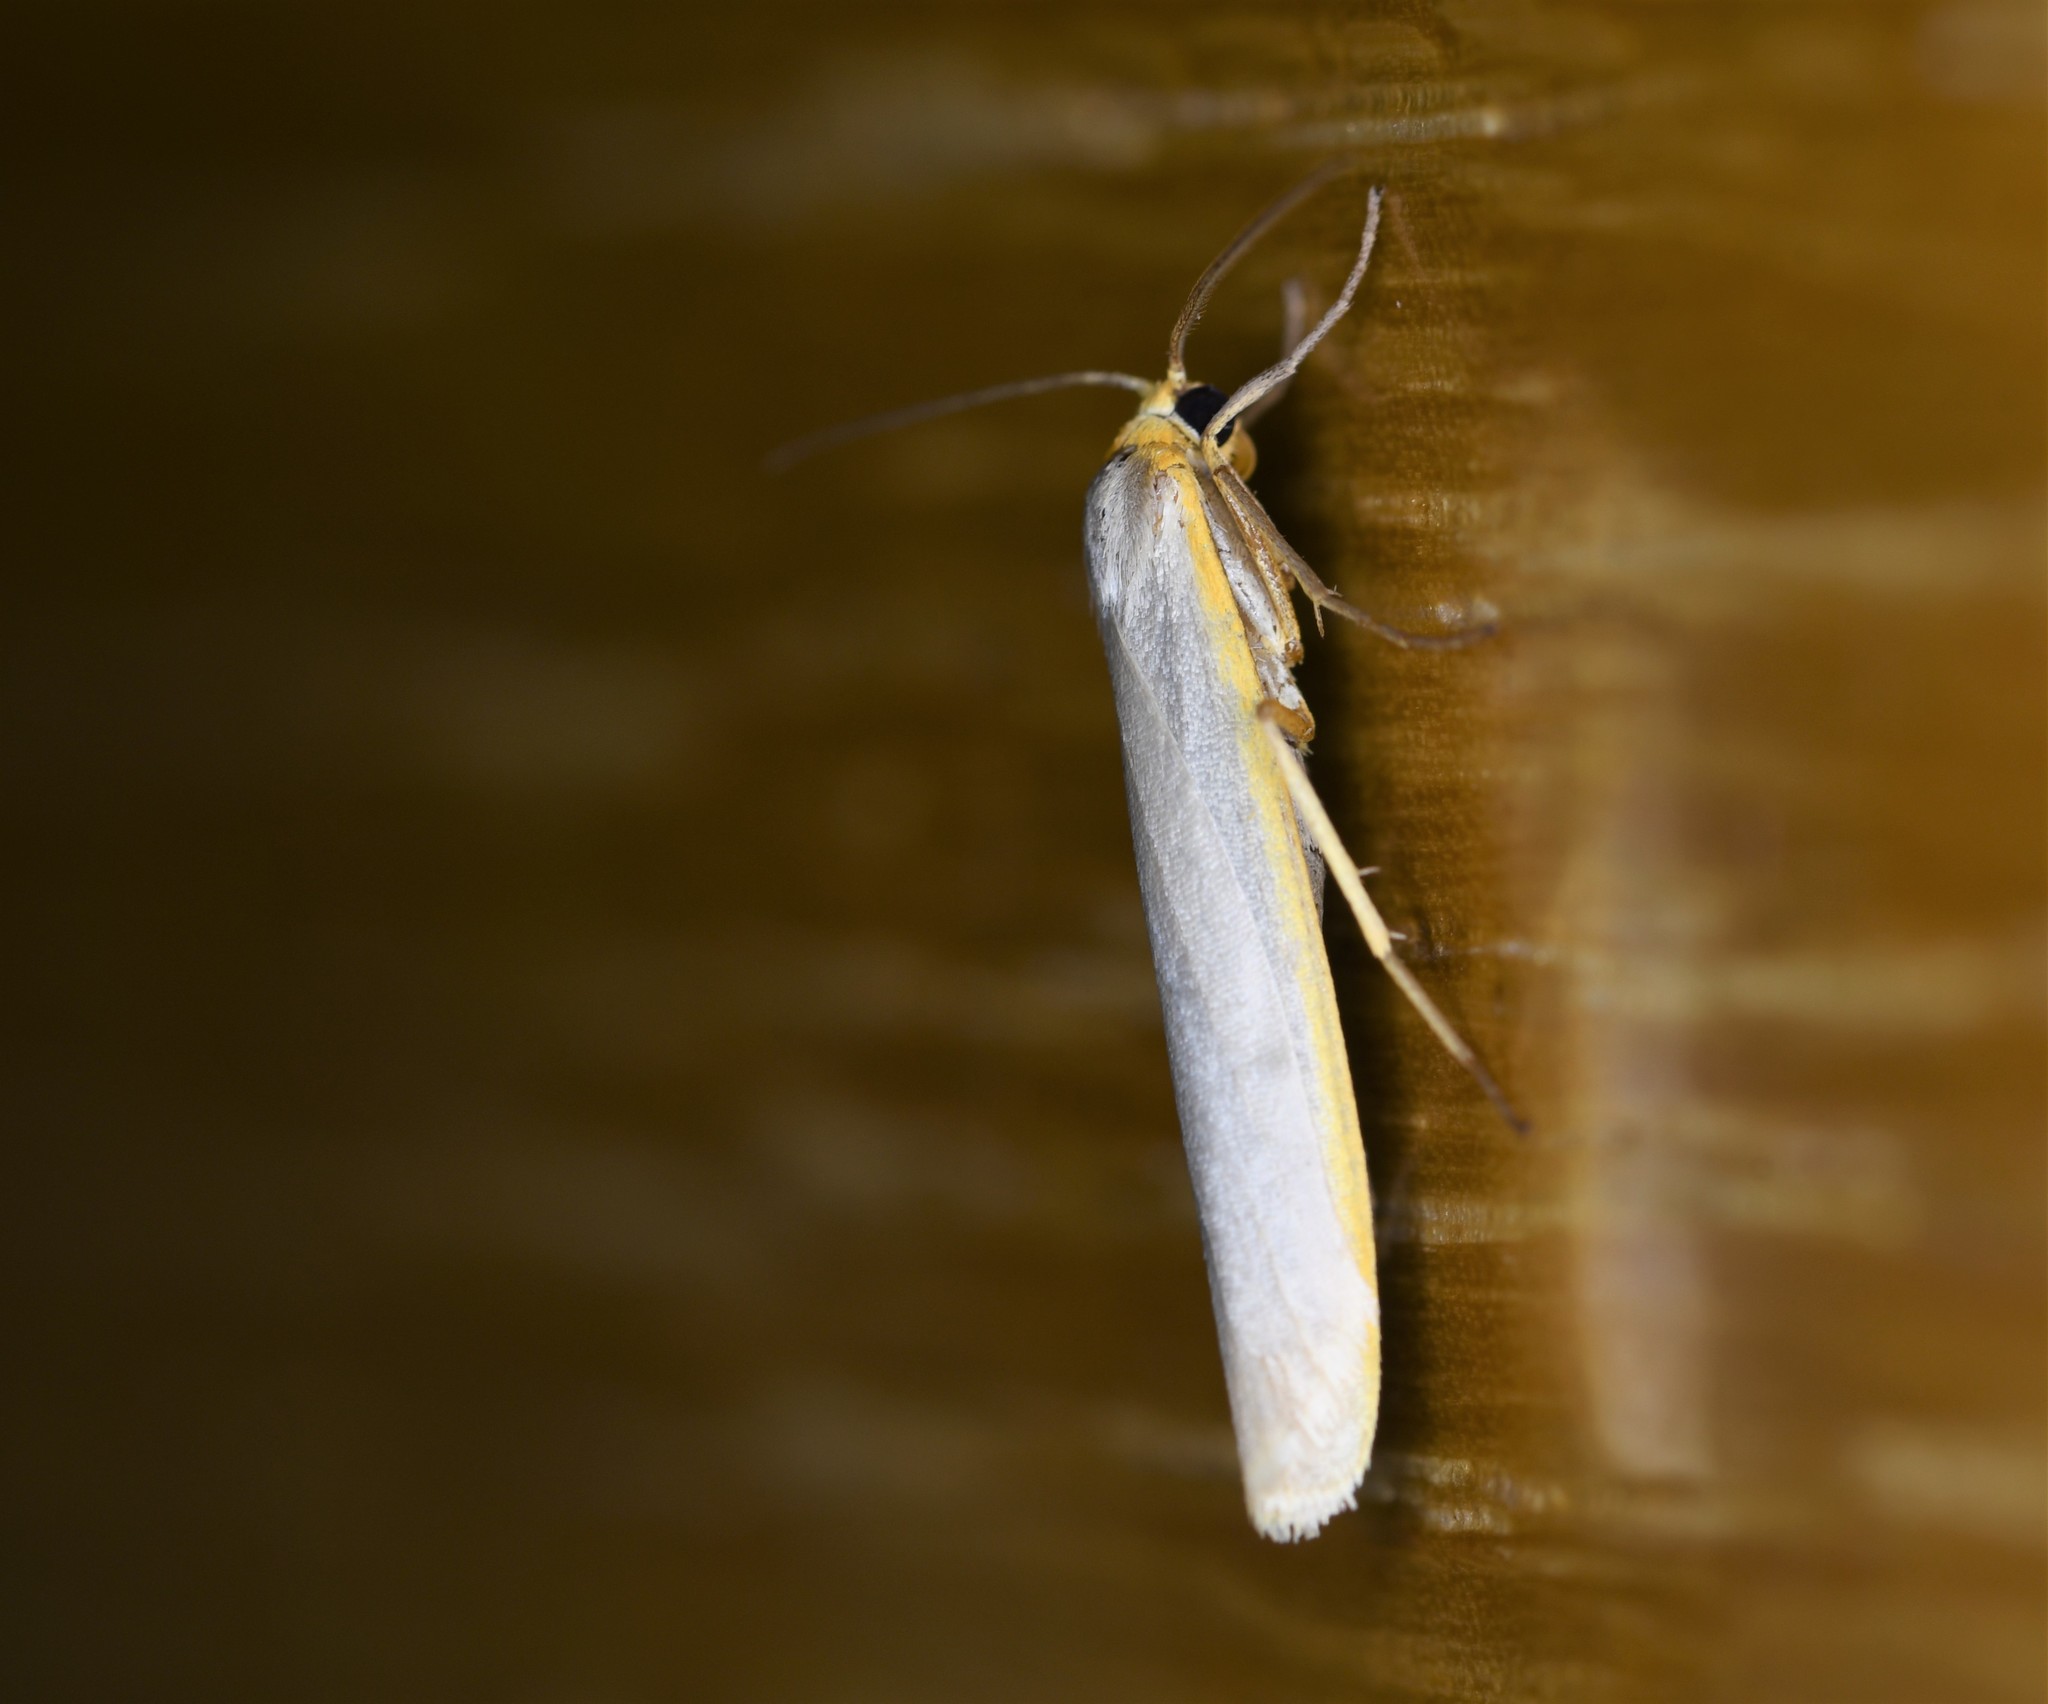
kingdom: Animalia
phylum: Arthropoda
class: Insecta
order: Lepidoptera
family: Erebidae
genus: Eilema
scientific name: Eilema caniola
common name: Hoary footman
